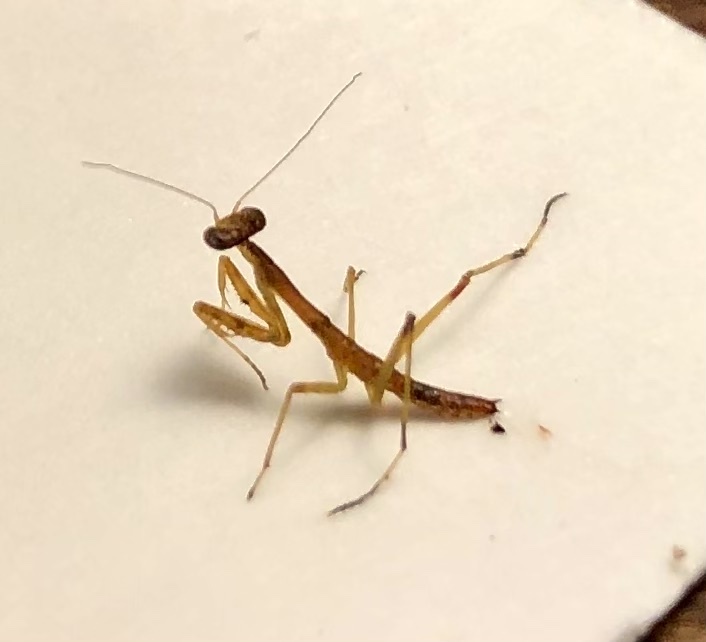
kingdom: Animalia
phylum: Arthropoda
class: Insecta
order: Mantodea
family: Mantidae
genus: Stagmomantis
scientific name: Stagmomantis carolina
